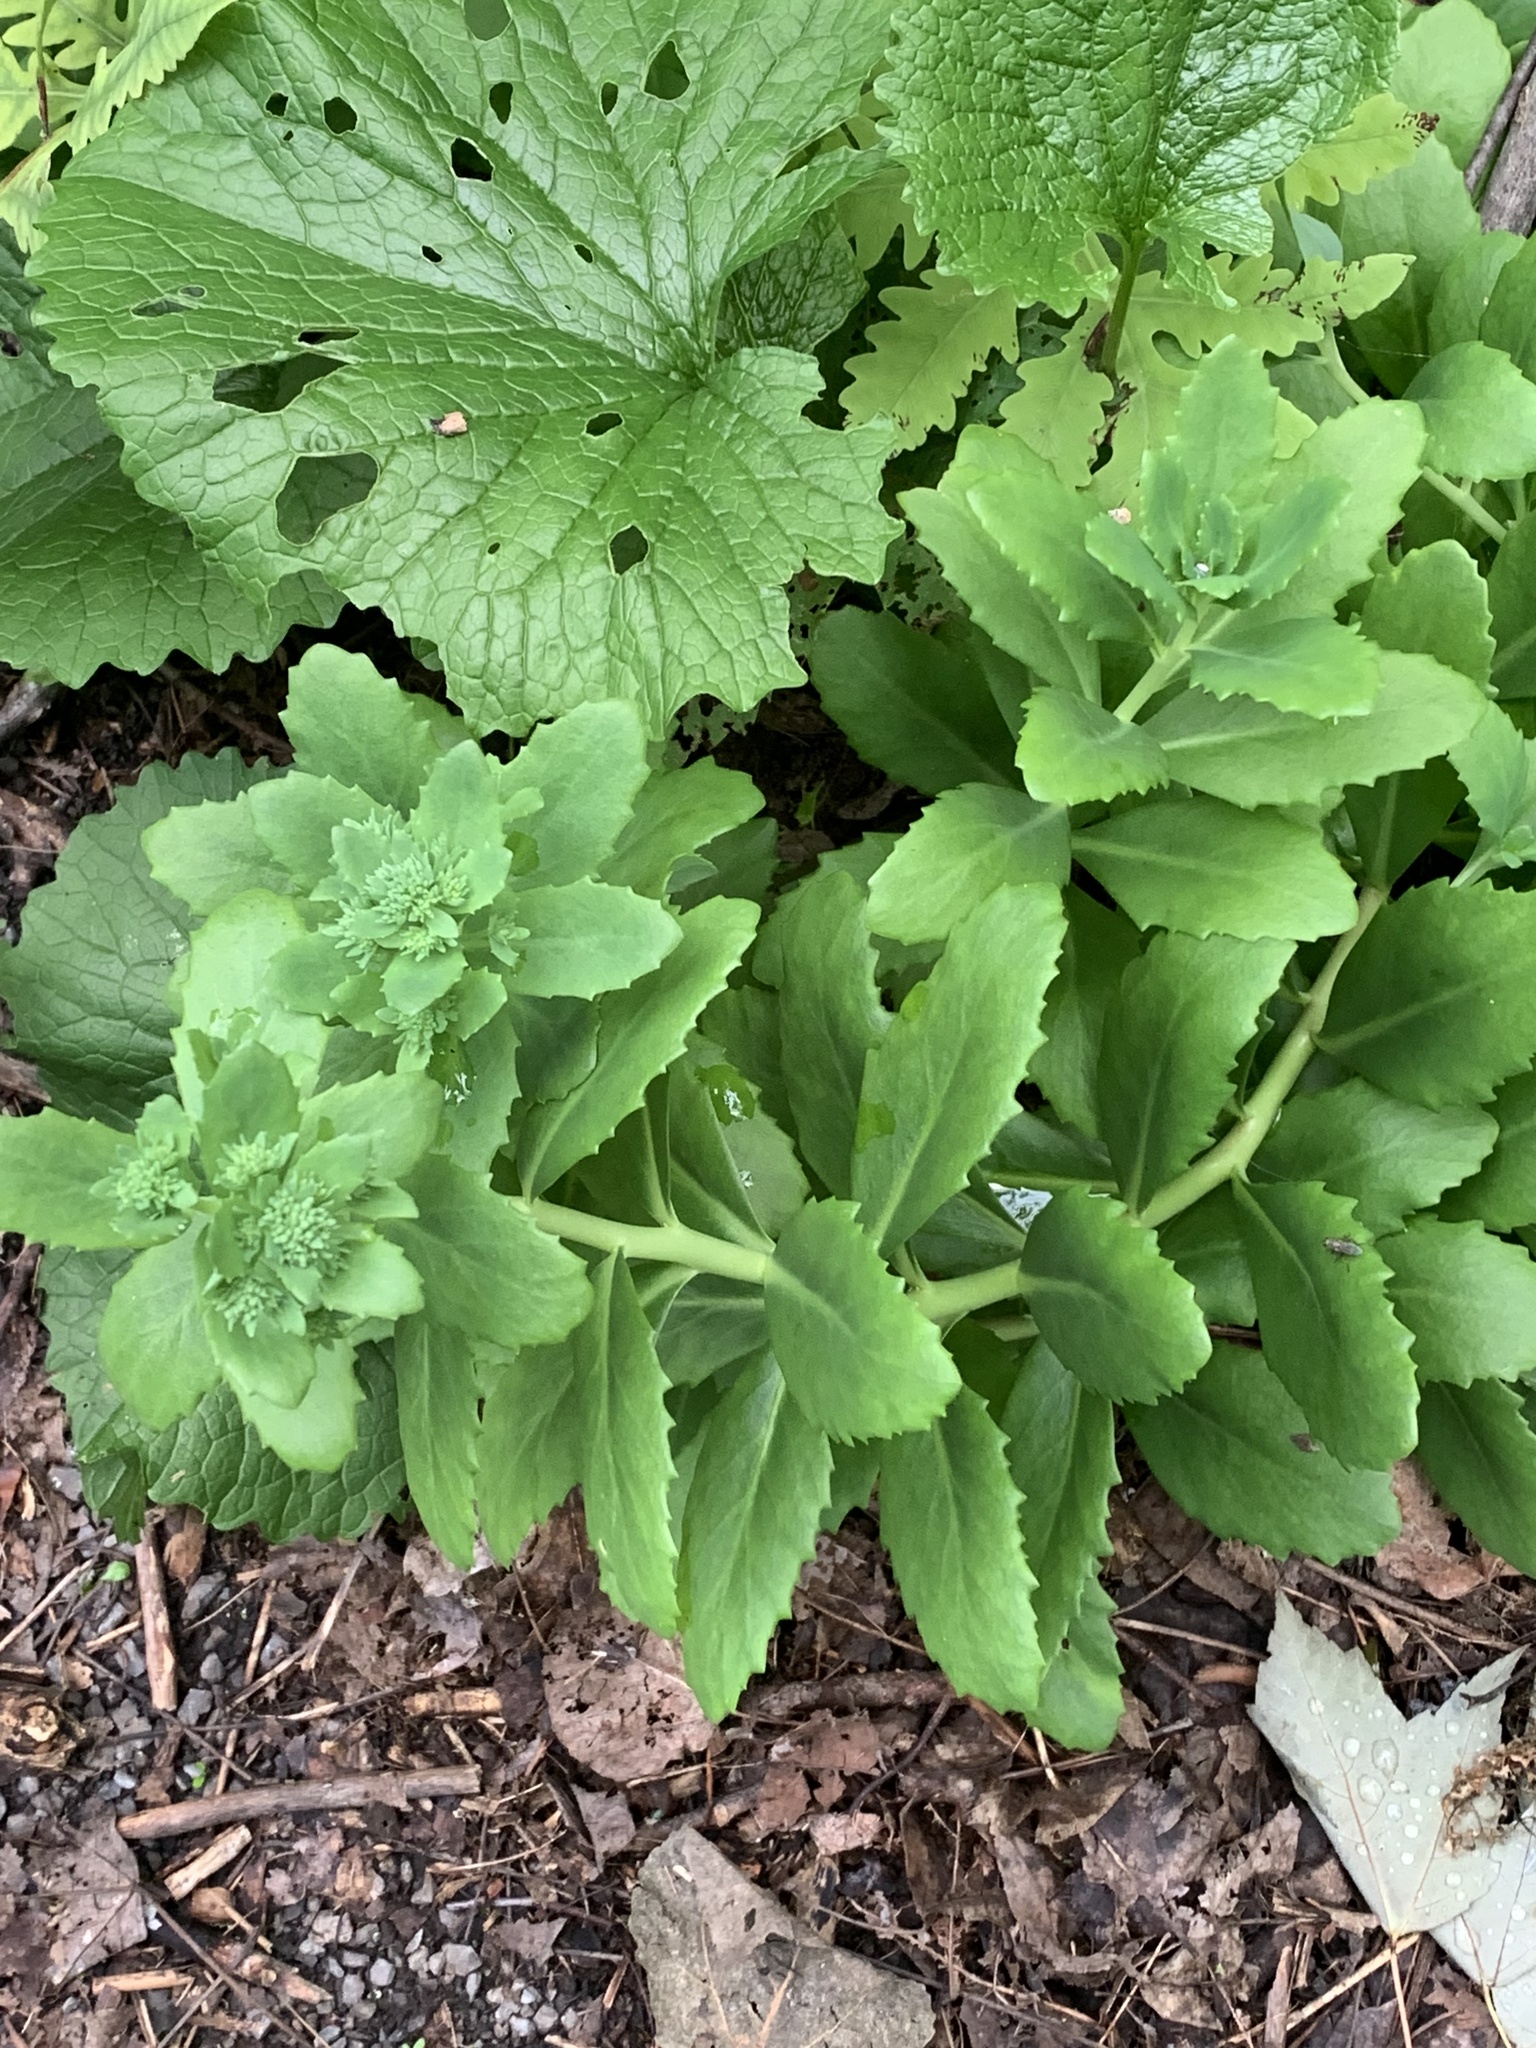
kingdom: Plantae
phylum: Tracheophyta
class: Magnoliopsida
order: Saxifragales
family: Crassulaceae
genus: Hylotelephium
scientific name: Hylotelephium telephium
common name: Live-forever
